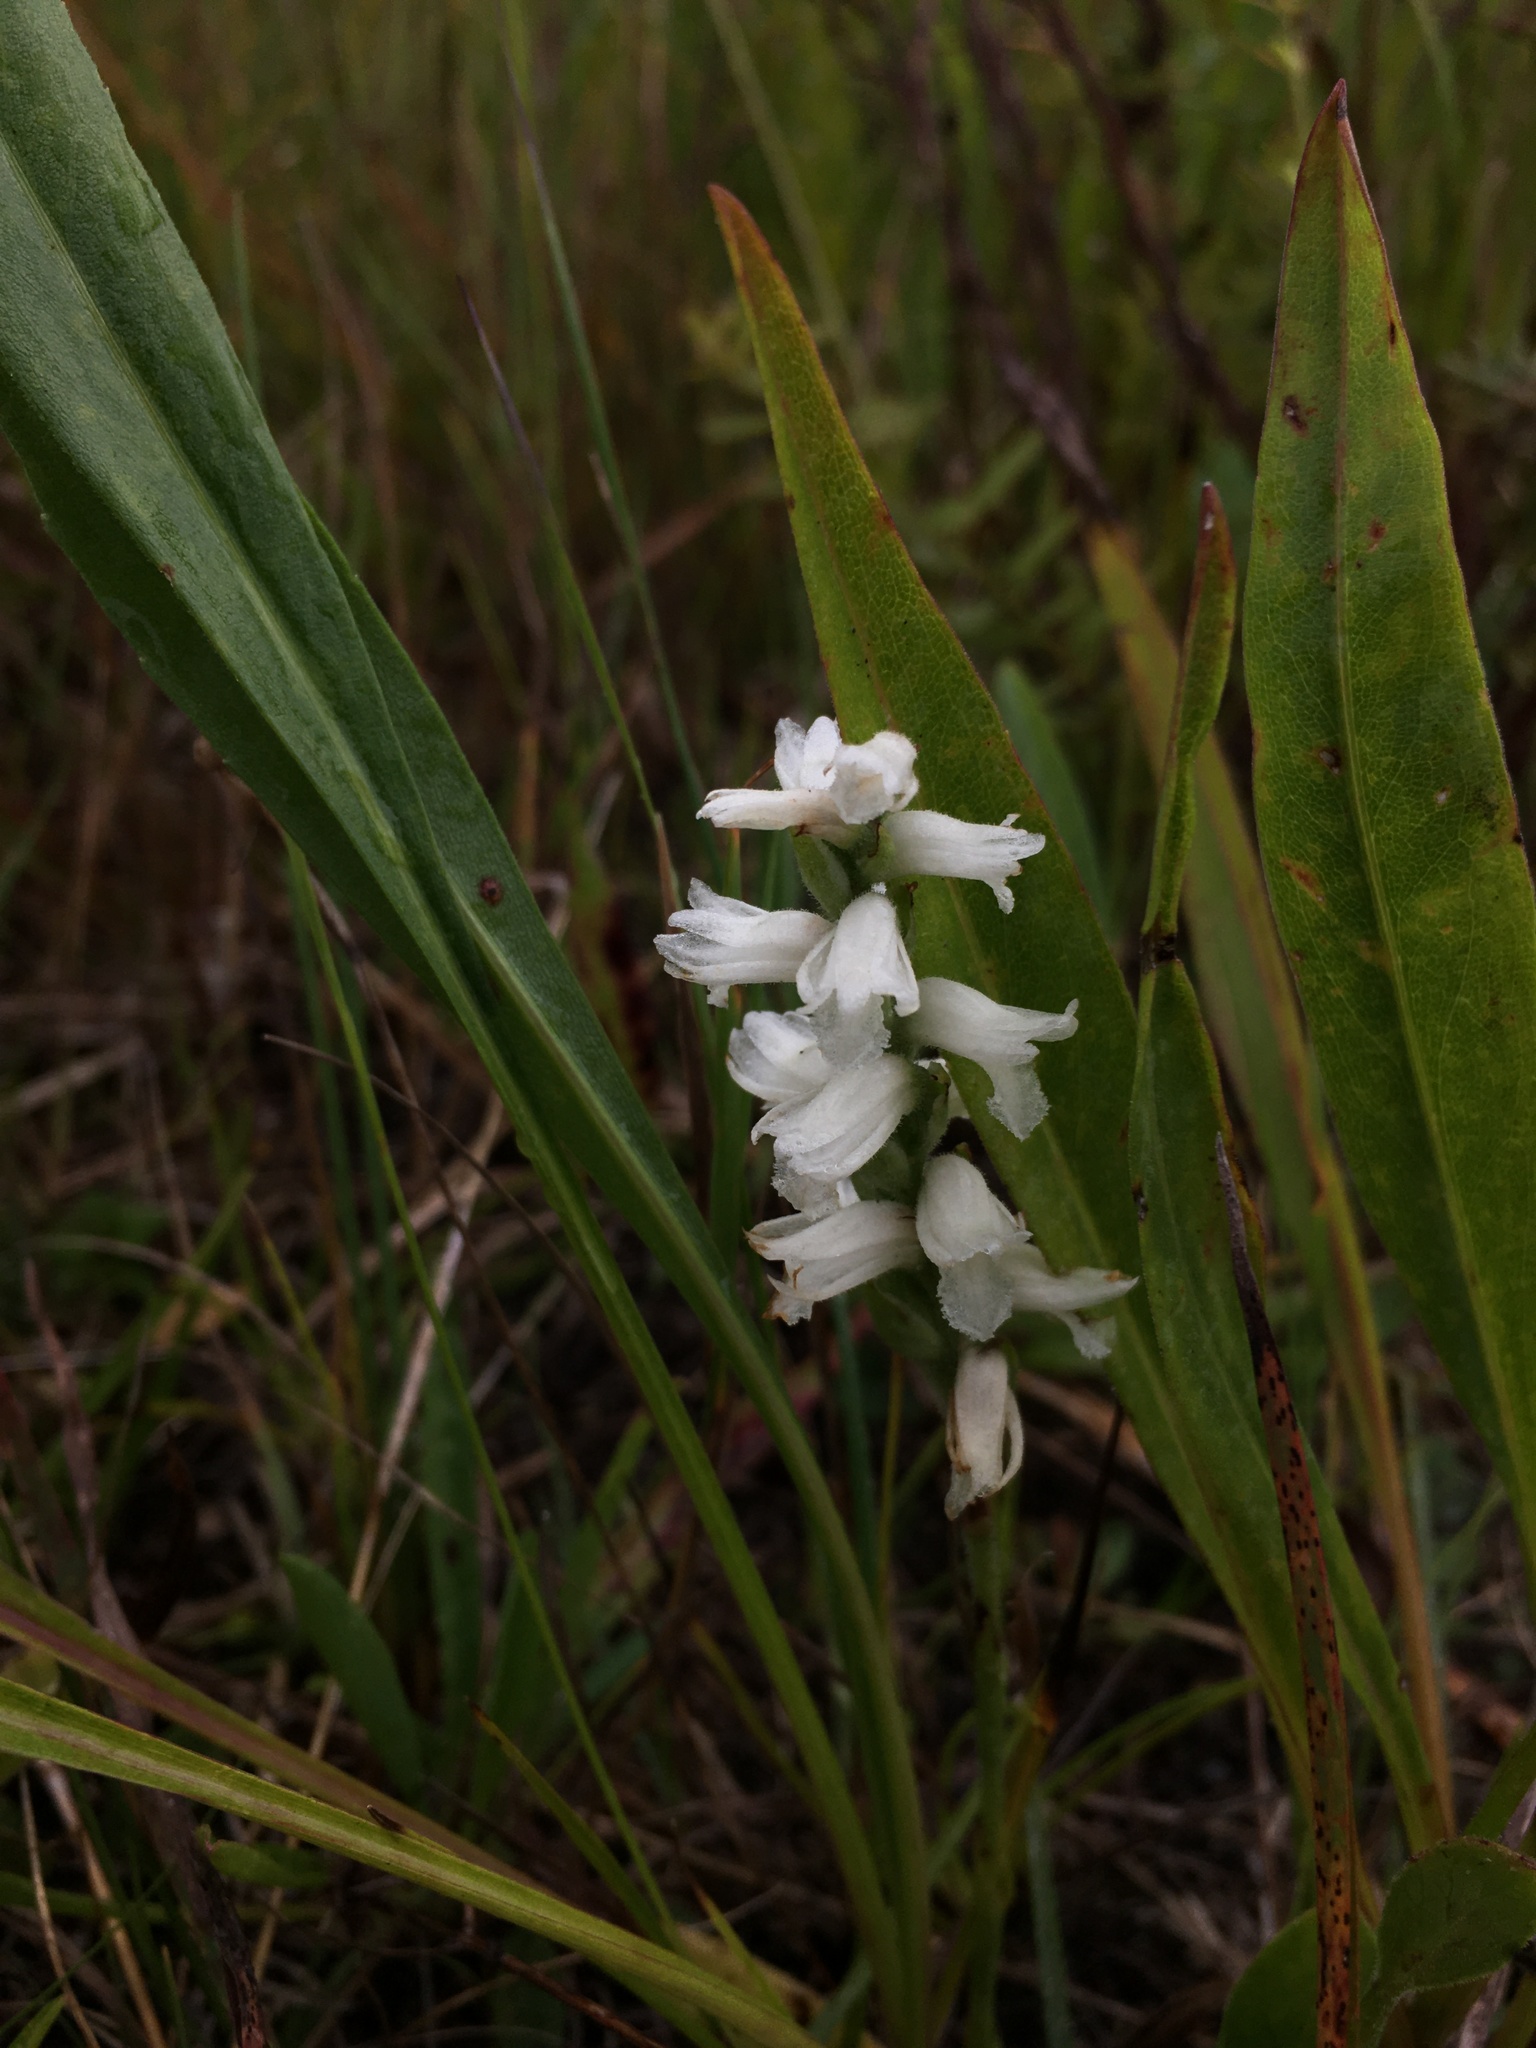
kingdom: Plantae
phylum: Tracheophyta
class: Liliopsida
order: Asparagales
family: Orchidaceae
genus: Spiranthes
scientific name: Spiranthes incurva
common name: Sphinx ladies'-tresses
